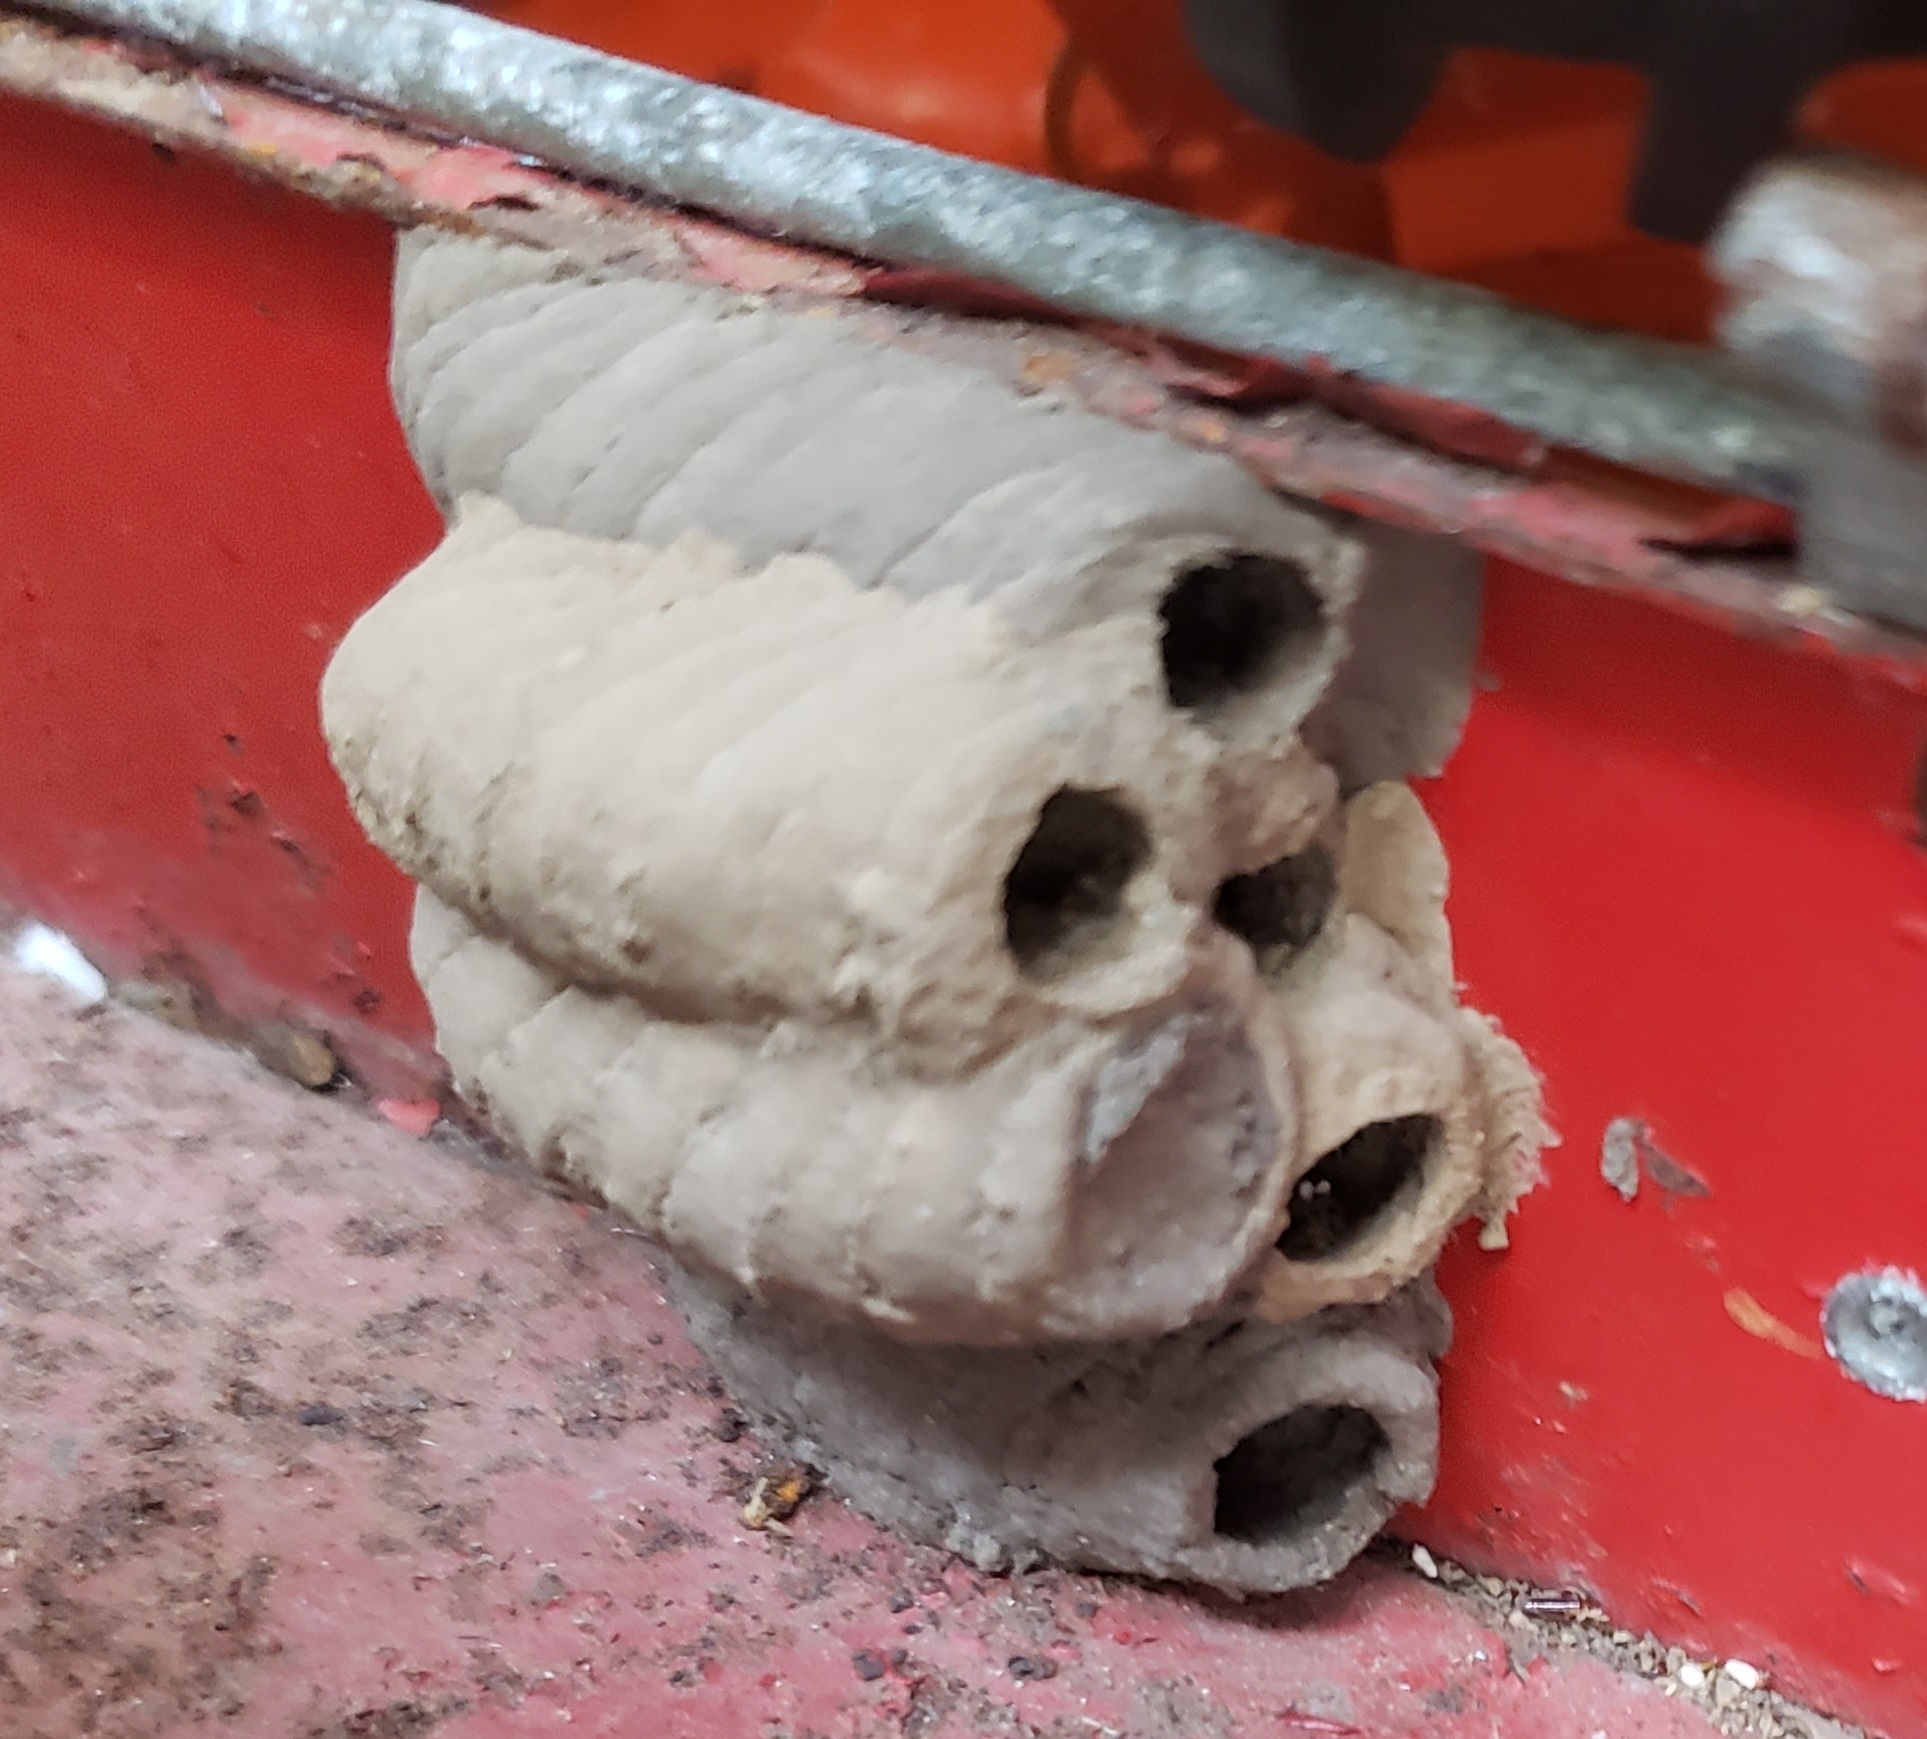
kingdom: Animalia
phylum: Arthropoda
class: Insecta
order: Hymenoptera
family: Sphecidae
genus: Sceliphron
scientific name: Sceliphron caementarium
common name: Mud dauber
